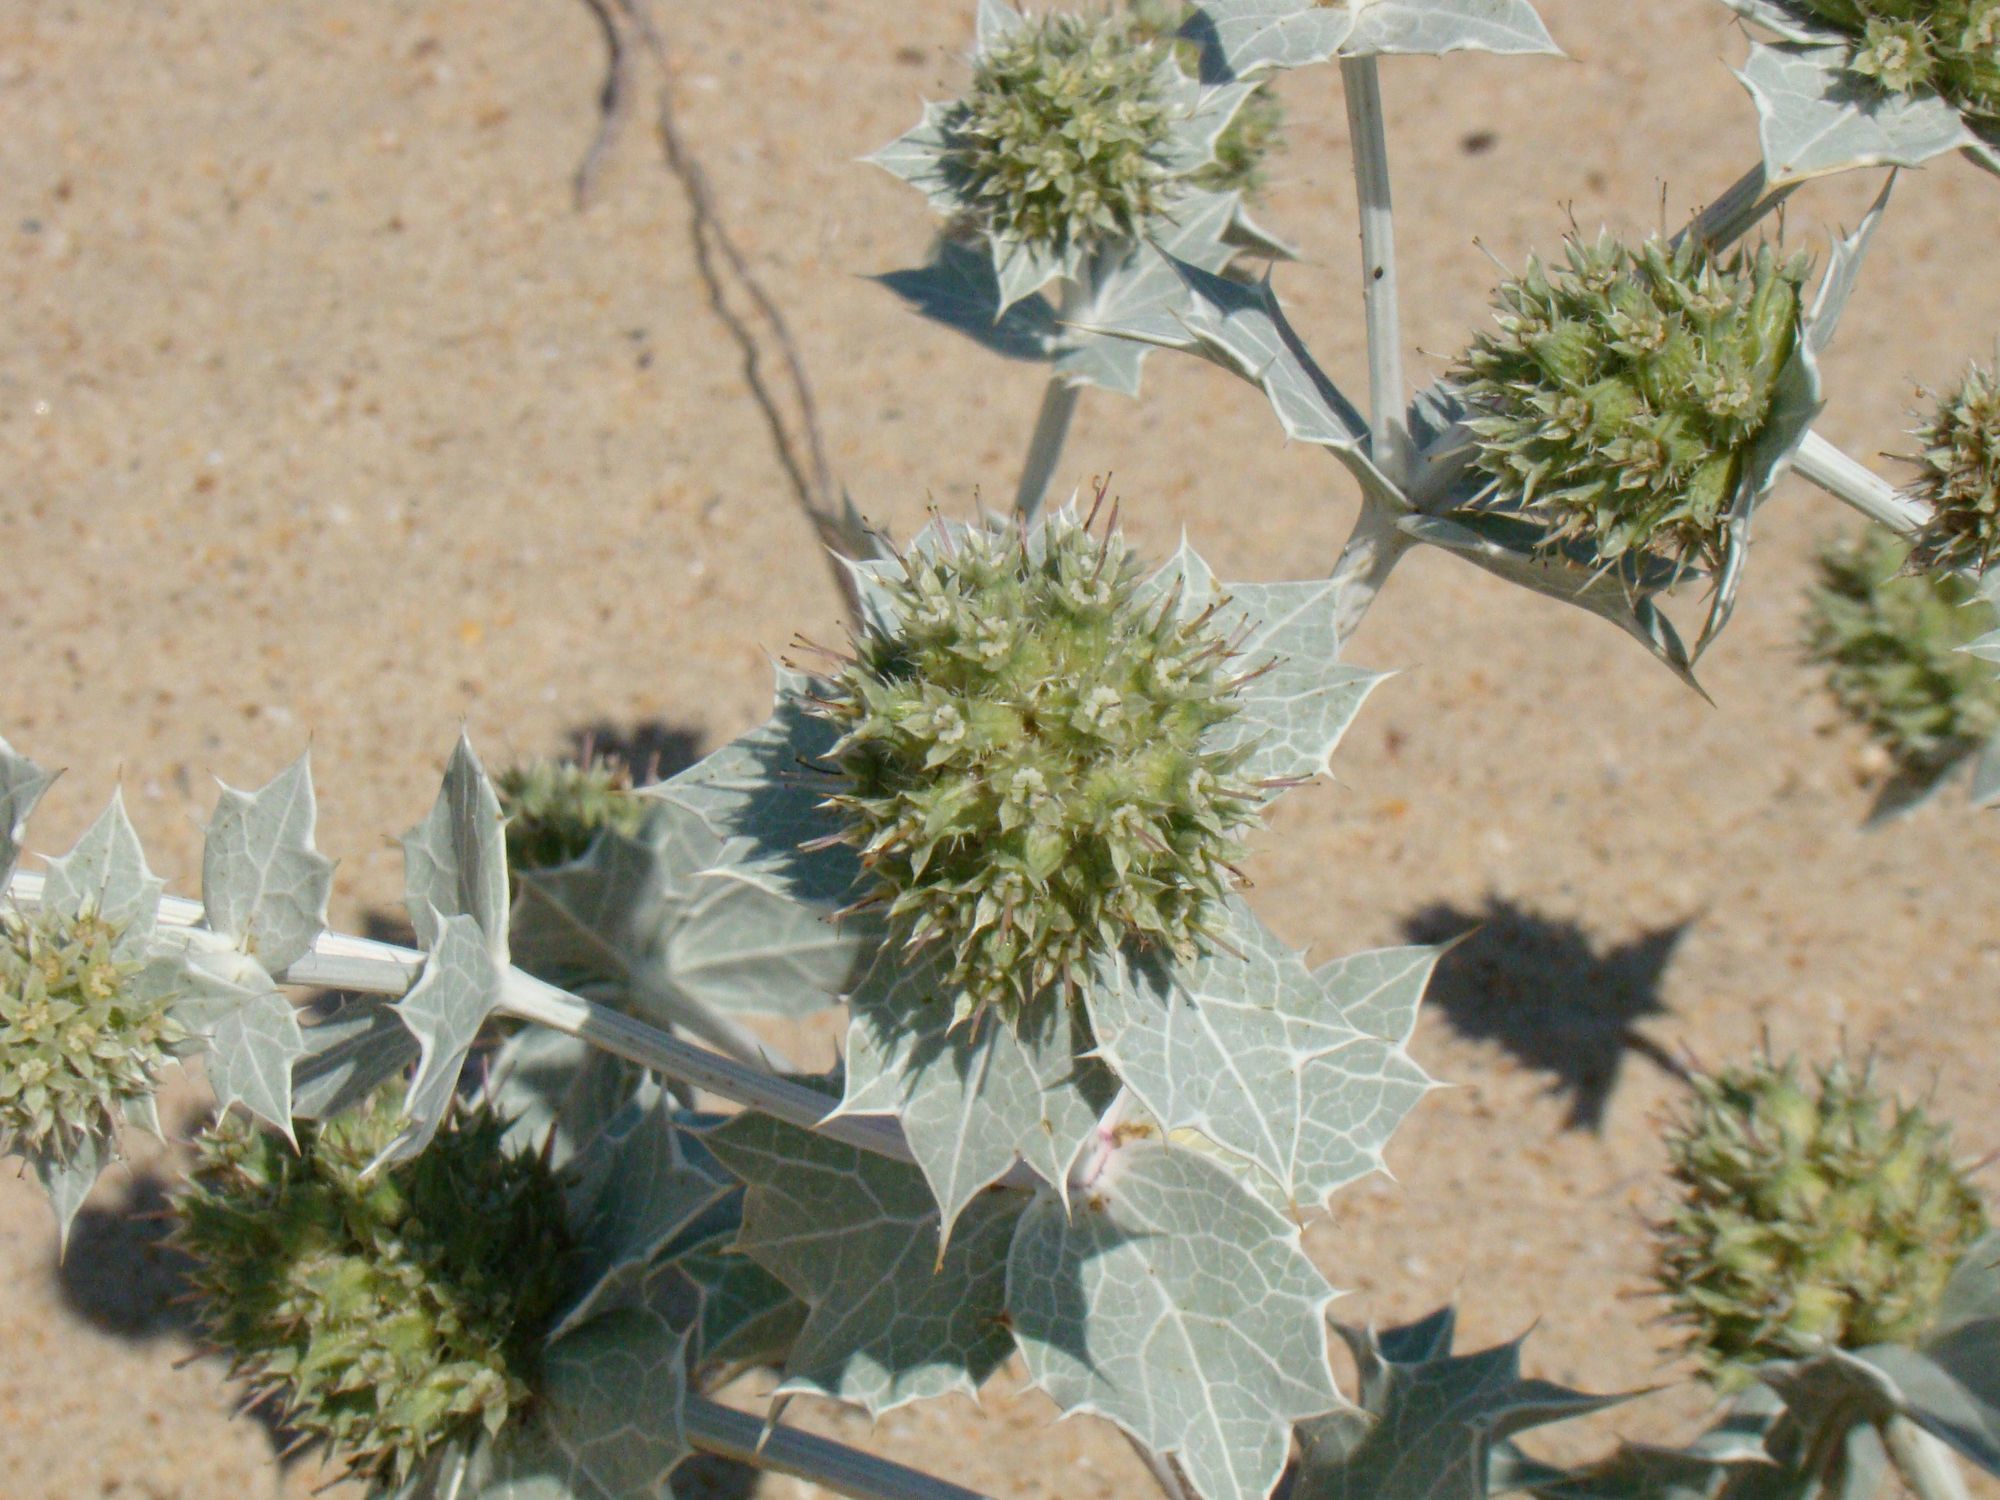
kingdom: Plantae
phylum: Tracheophyta
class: Magnoliopsida
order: Apiales
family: Apiaceae
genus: Eryngium
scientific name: Eryngium maritimum
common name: Sea-holly
